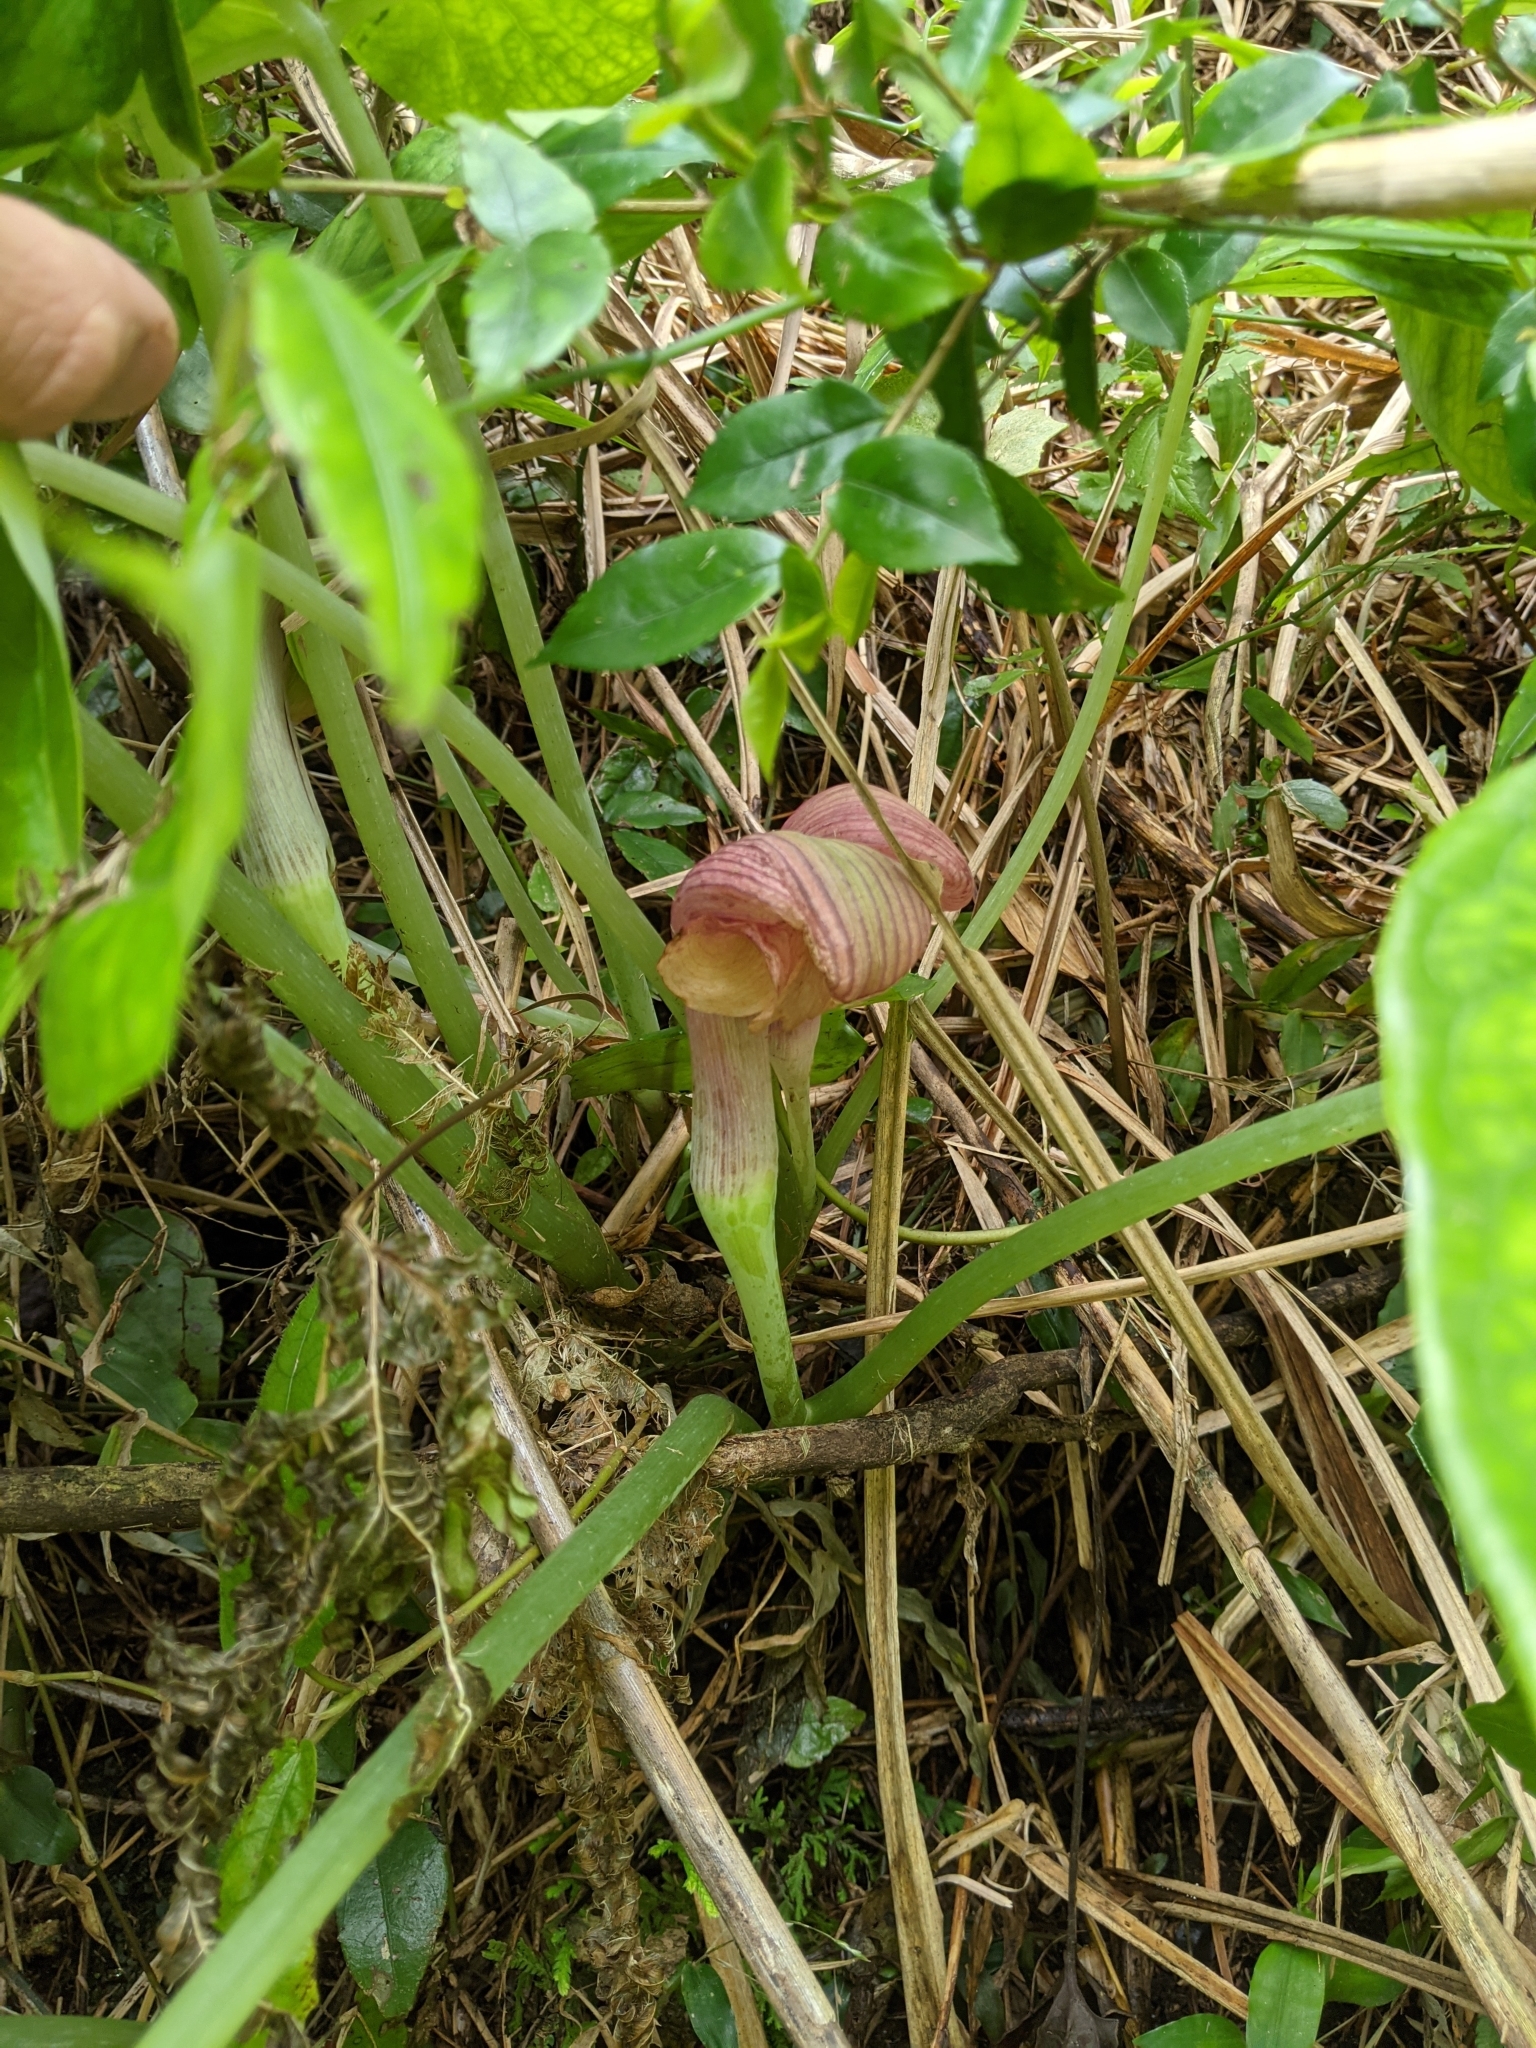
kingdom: Plantae
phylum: Tracheophyta
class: Liliopsida
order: Alismatales
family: Araceae
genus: Arisaema
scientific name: Arisaema ringens
